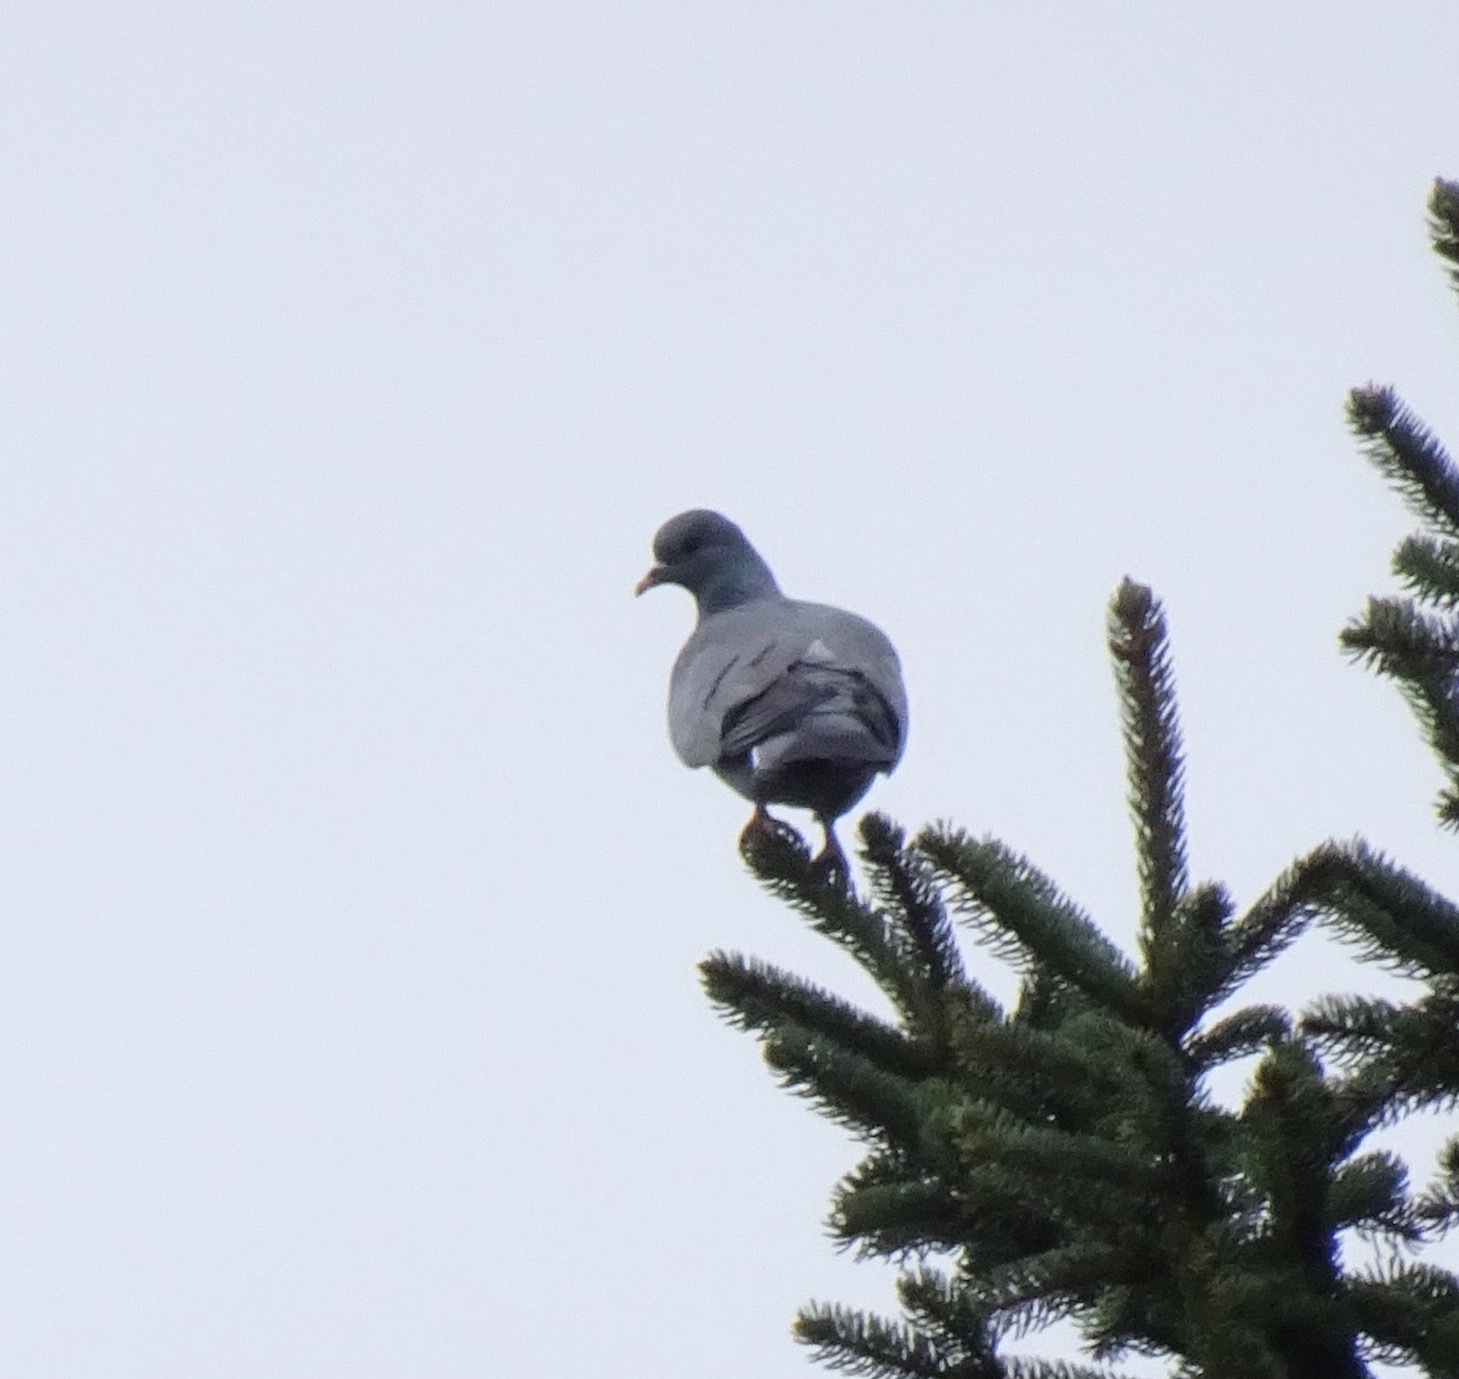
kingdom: Animalia
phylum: Chordata
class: Aves
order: Columbiformes
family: Columbidae
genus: Columba
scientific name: Columba oenas
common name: Stock dove
